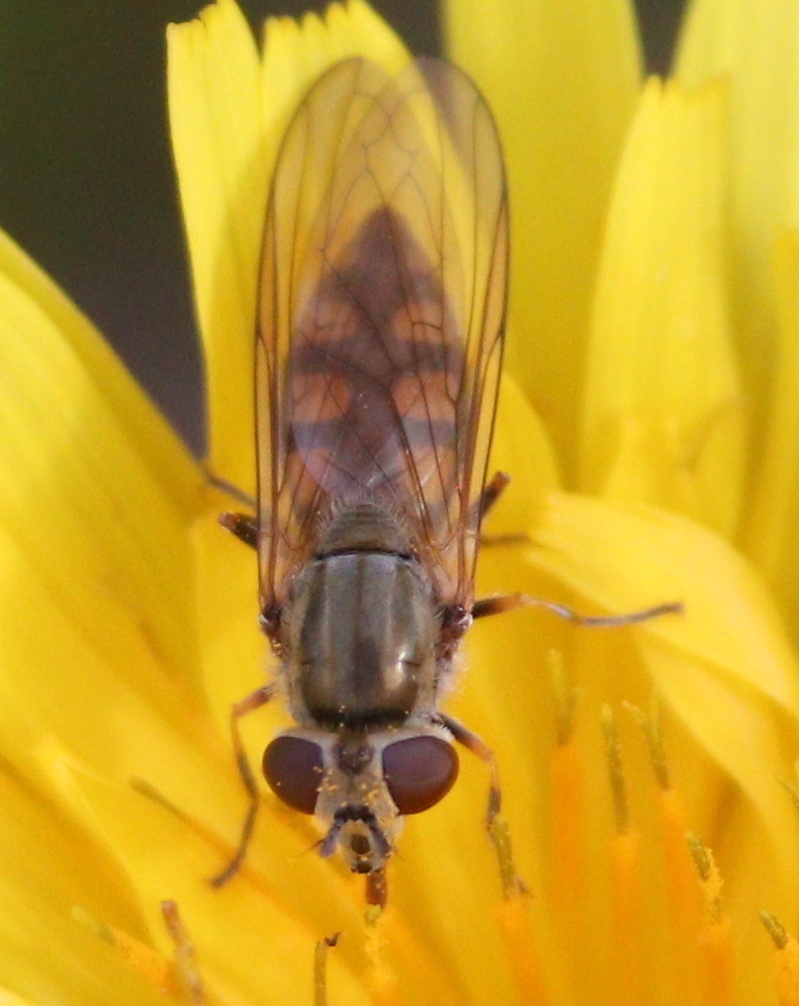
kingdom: Animalia
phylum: Arthropoda
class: Insecta
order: Diptera
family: Syrphidae
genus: Platycheirus
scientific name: Platycheirus manicatus
